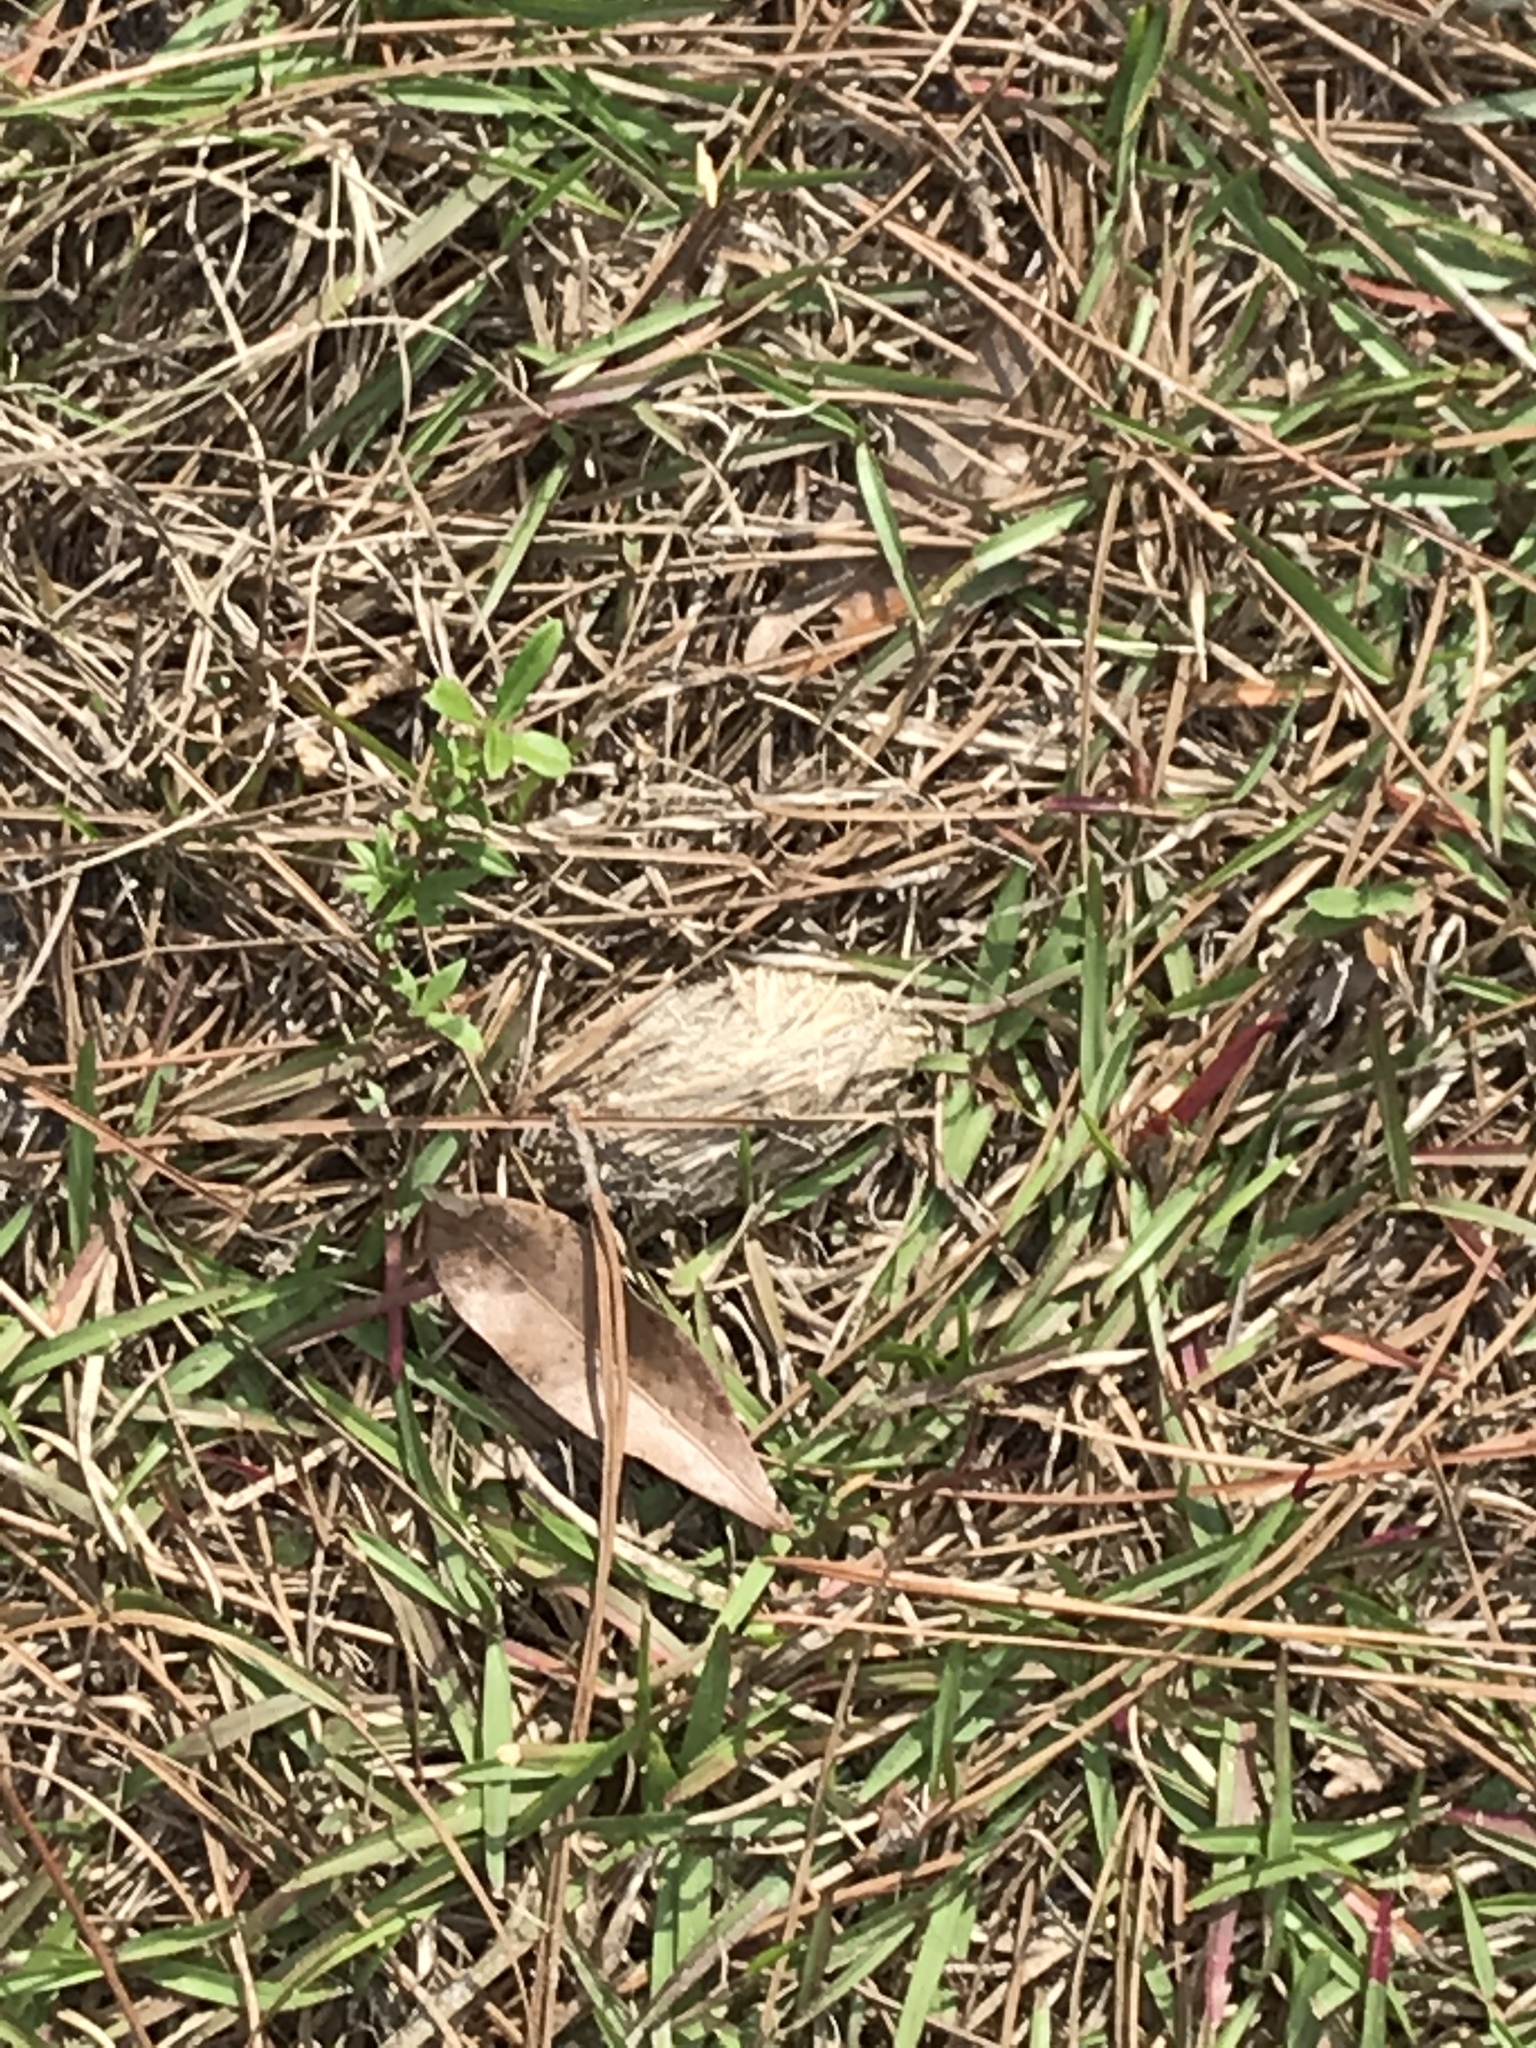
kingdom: Animalia
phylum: Chordata
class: Testudines
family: Testudinidae
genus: Gopherus
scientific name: Gopherus polyphemus
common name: Florida gopher tortoise
